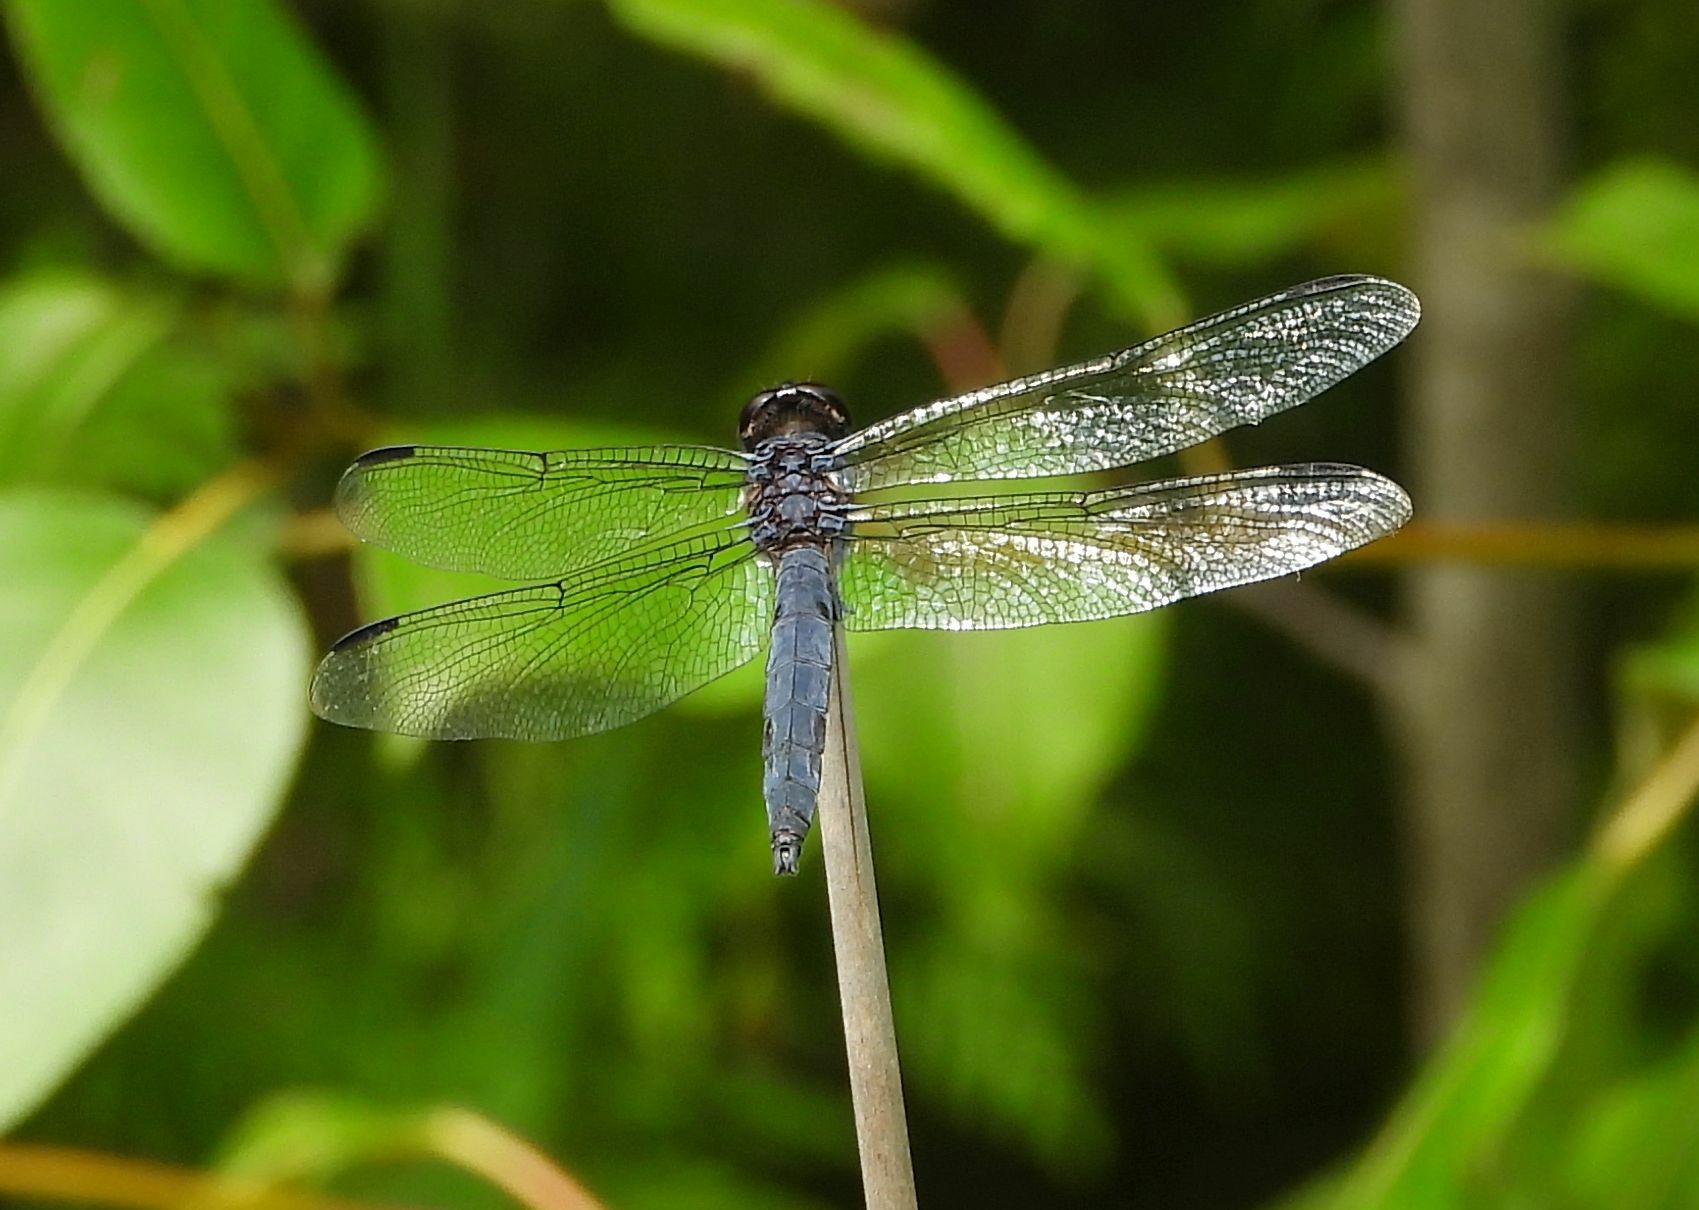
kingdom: Animalia
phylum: Arthropoda
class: Insecta
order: Odonata
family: Libellulidae
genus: Libellula
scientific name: Libellula incesta
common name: Slaty skimmer
